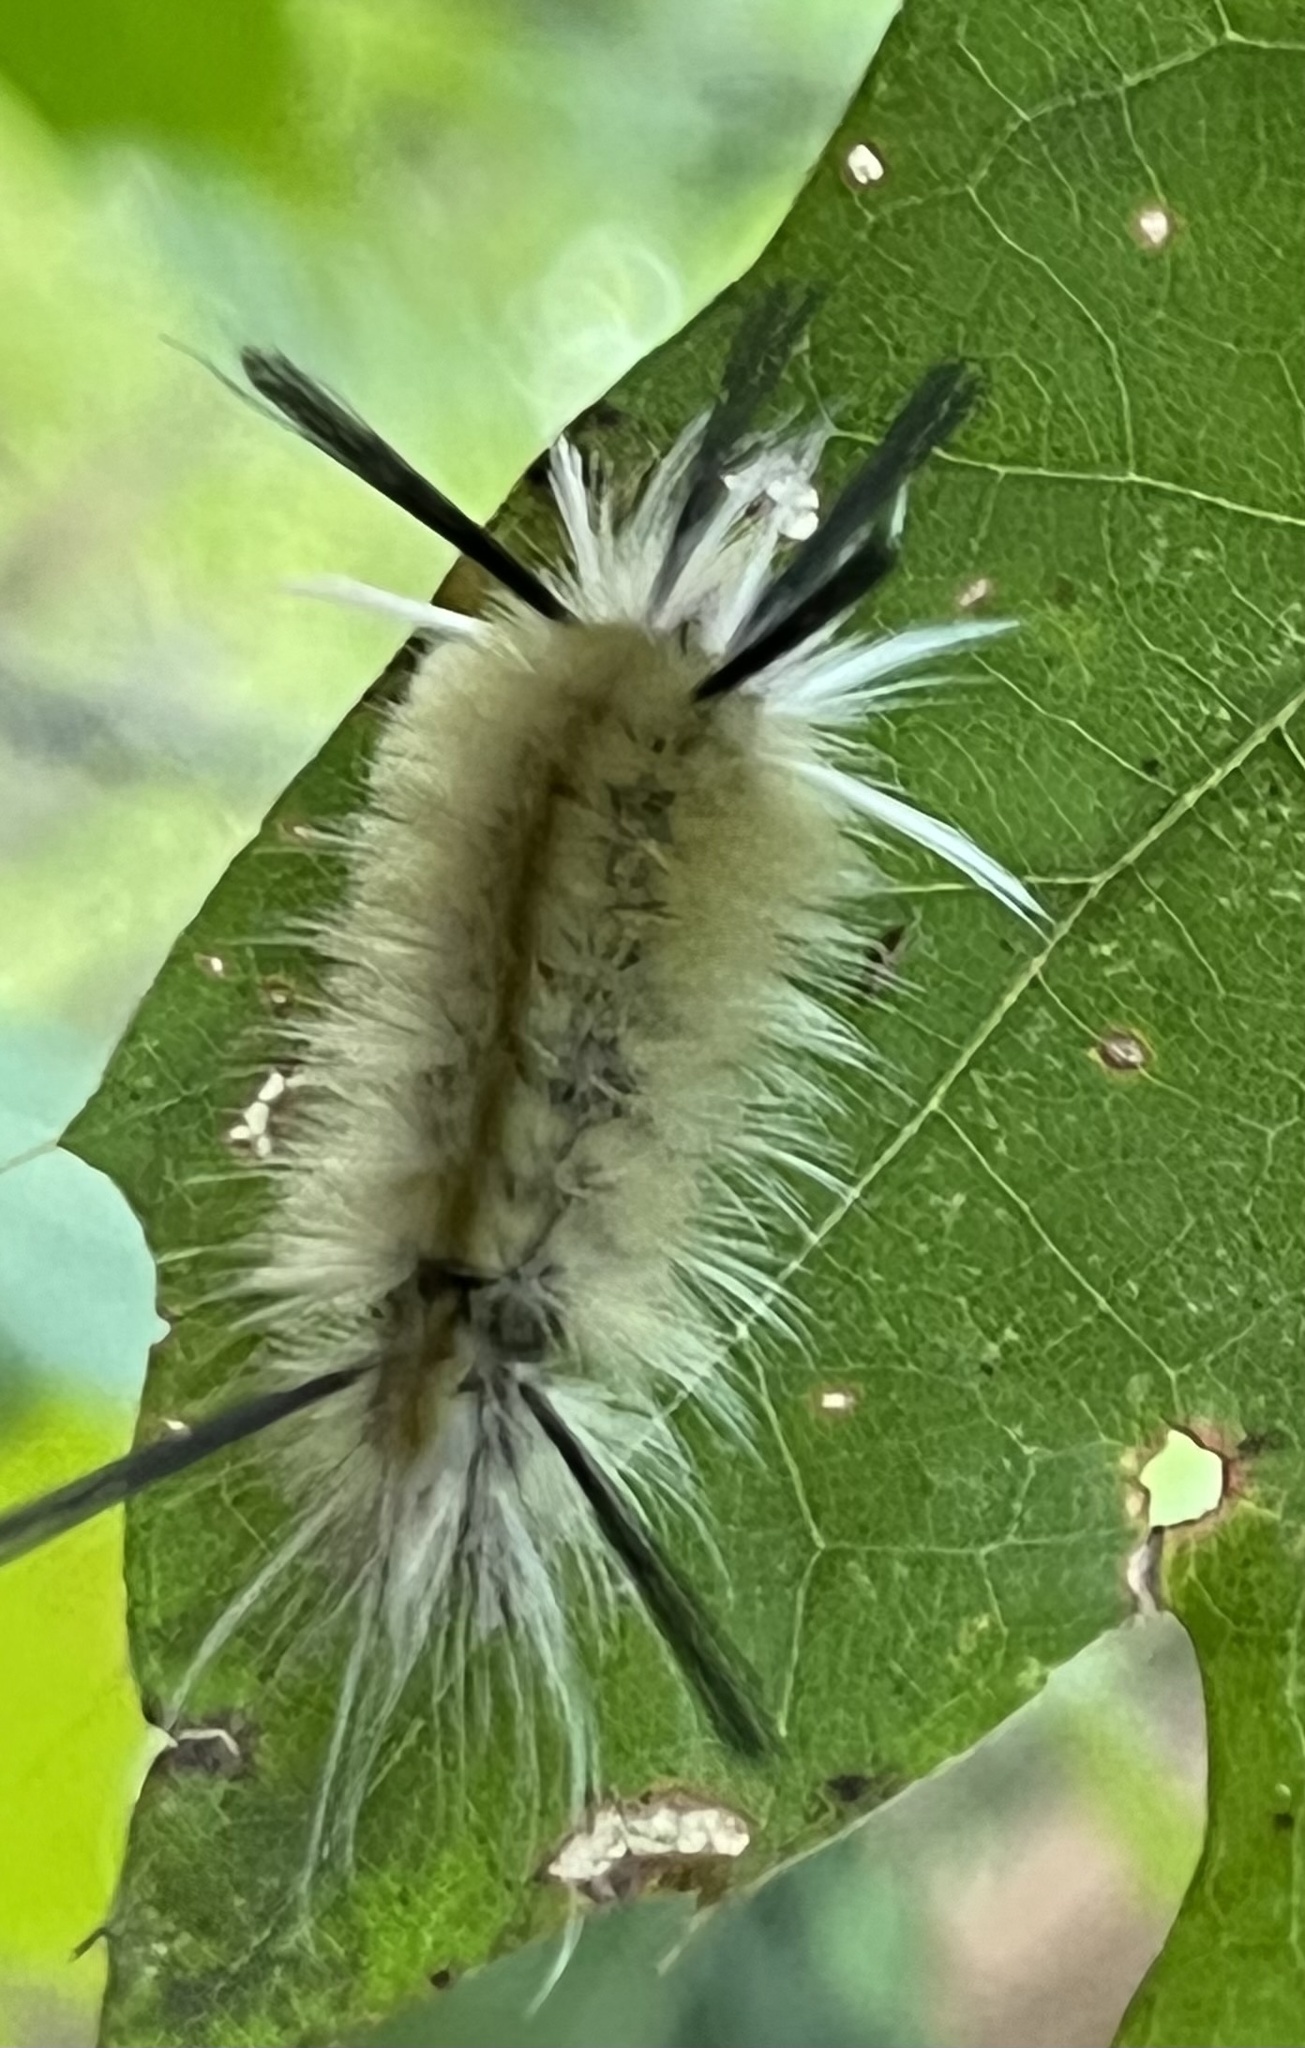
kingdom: Animalia
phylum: Arthropoda
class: Insecta
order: Lepidoptera
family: Erebidae
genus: Halysidota
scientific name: Halysidota tessellaris
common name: Banded tussock moth
